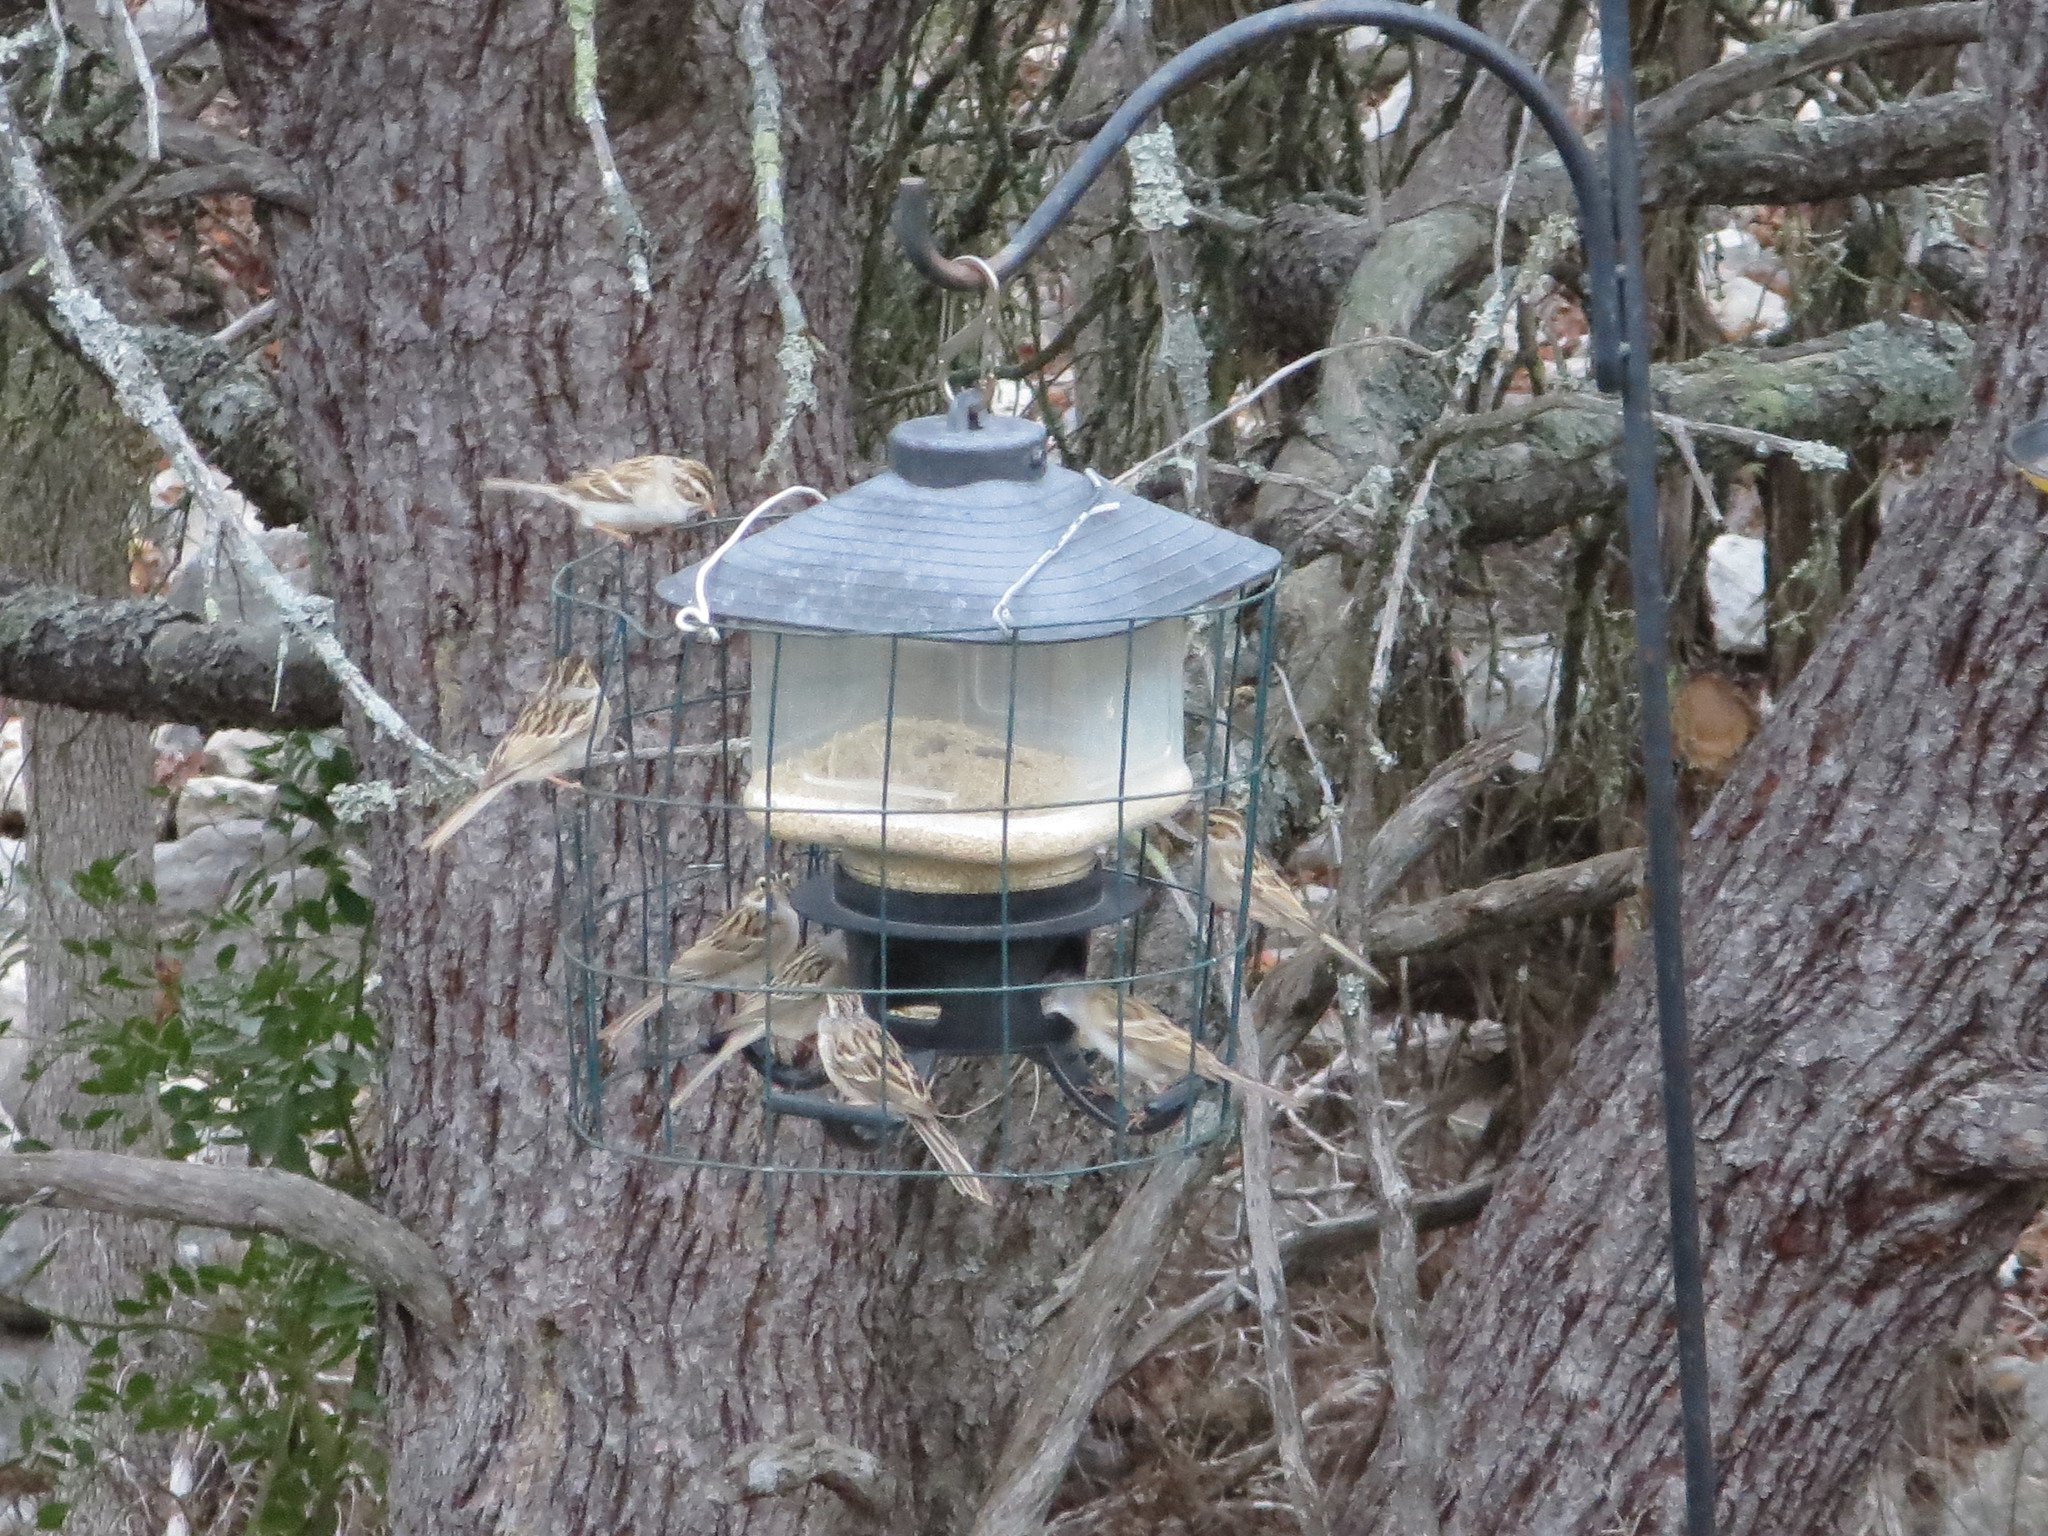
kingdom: Animalia
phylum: Chordata
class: Aves
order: Passeriformes
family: Passerellidae
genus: Spizella
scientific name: Spizella pallida
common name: Clay-colored sparrow
